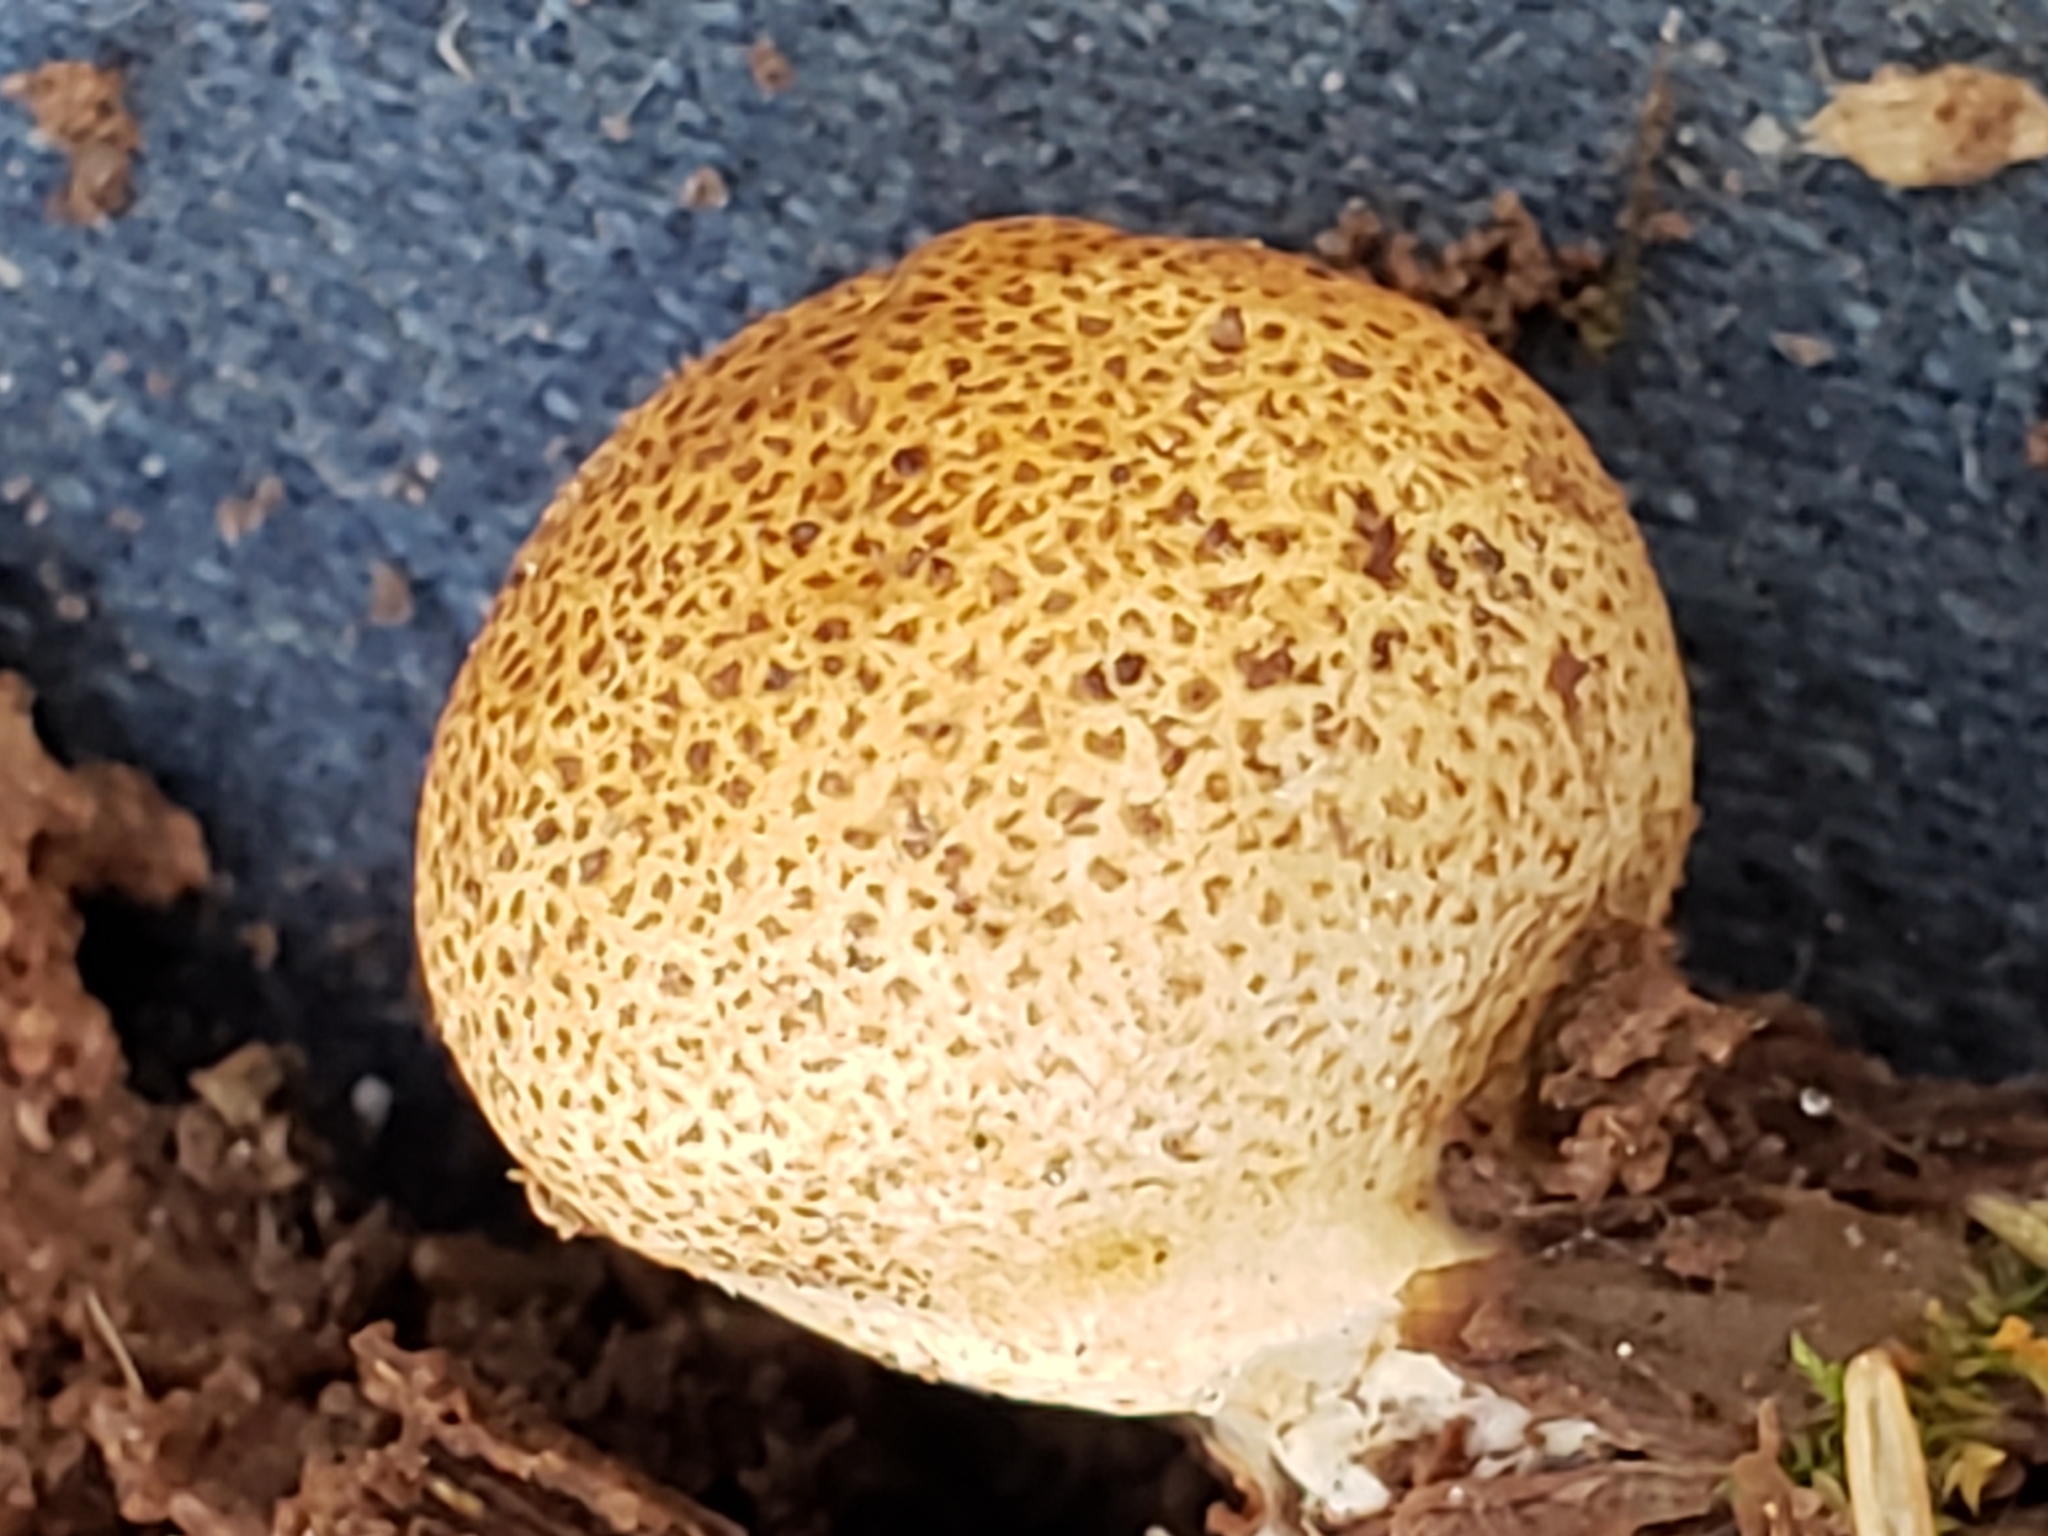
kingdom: Fungi
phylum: Basidiomycota
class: Agaricomycetes
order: Boletales
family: Sclerodermataceae
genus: Scleroderma
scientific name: Scleroderma citrinum
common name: Common earthball
